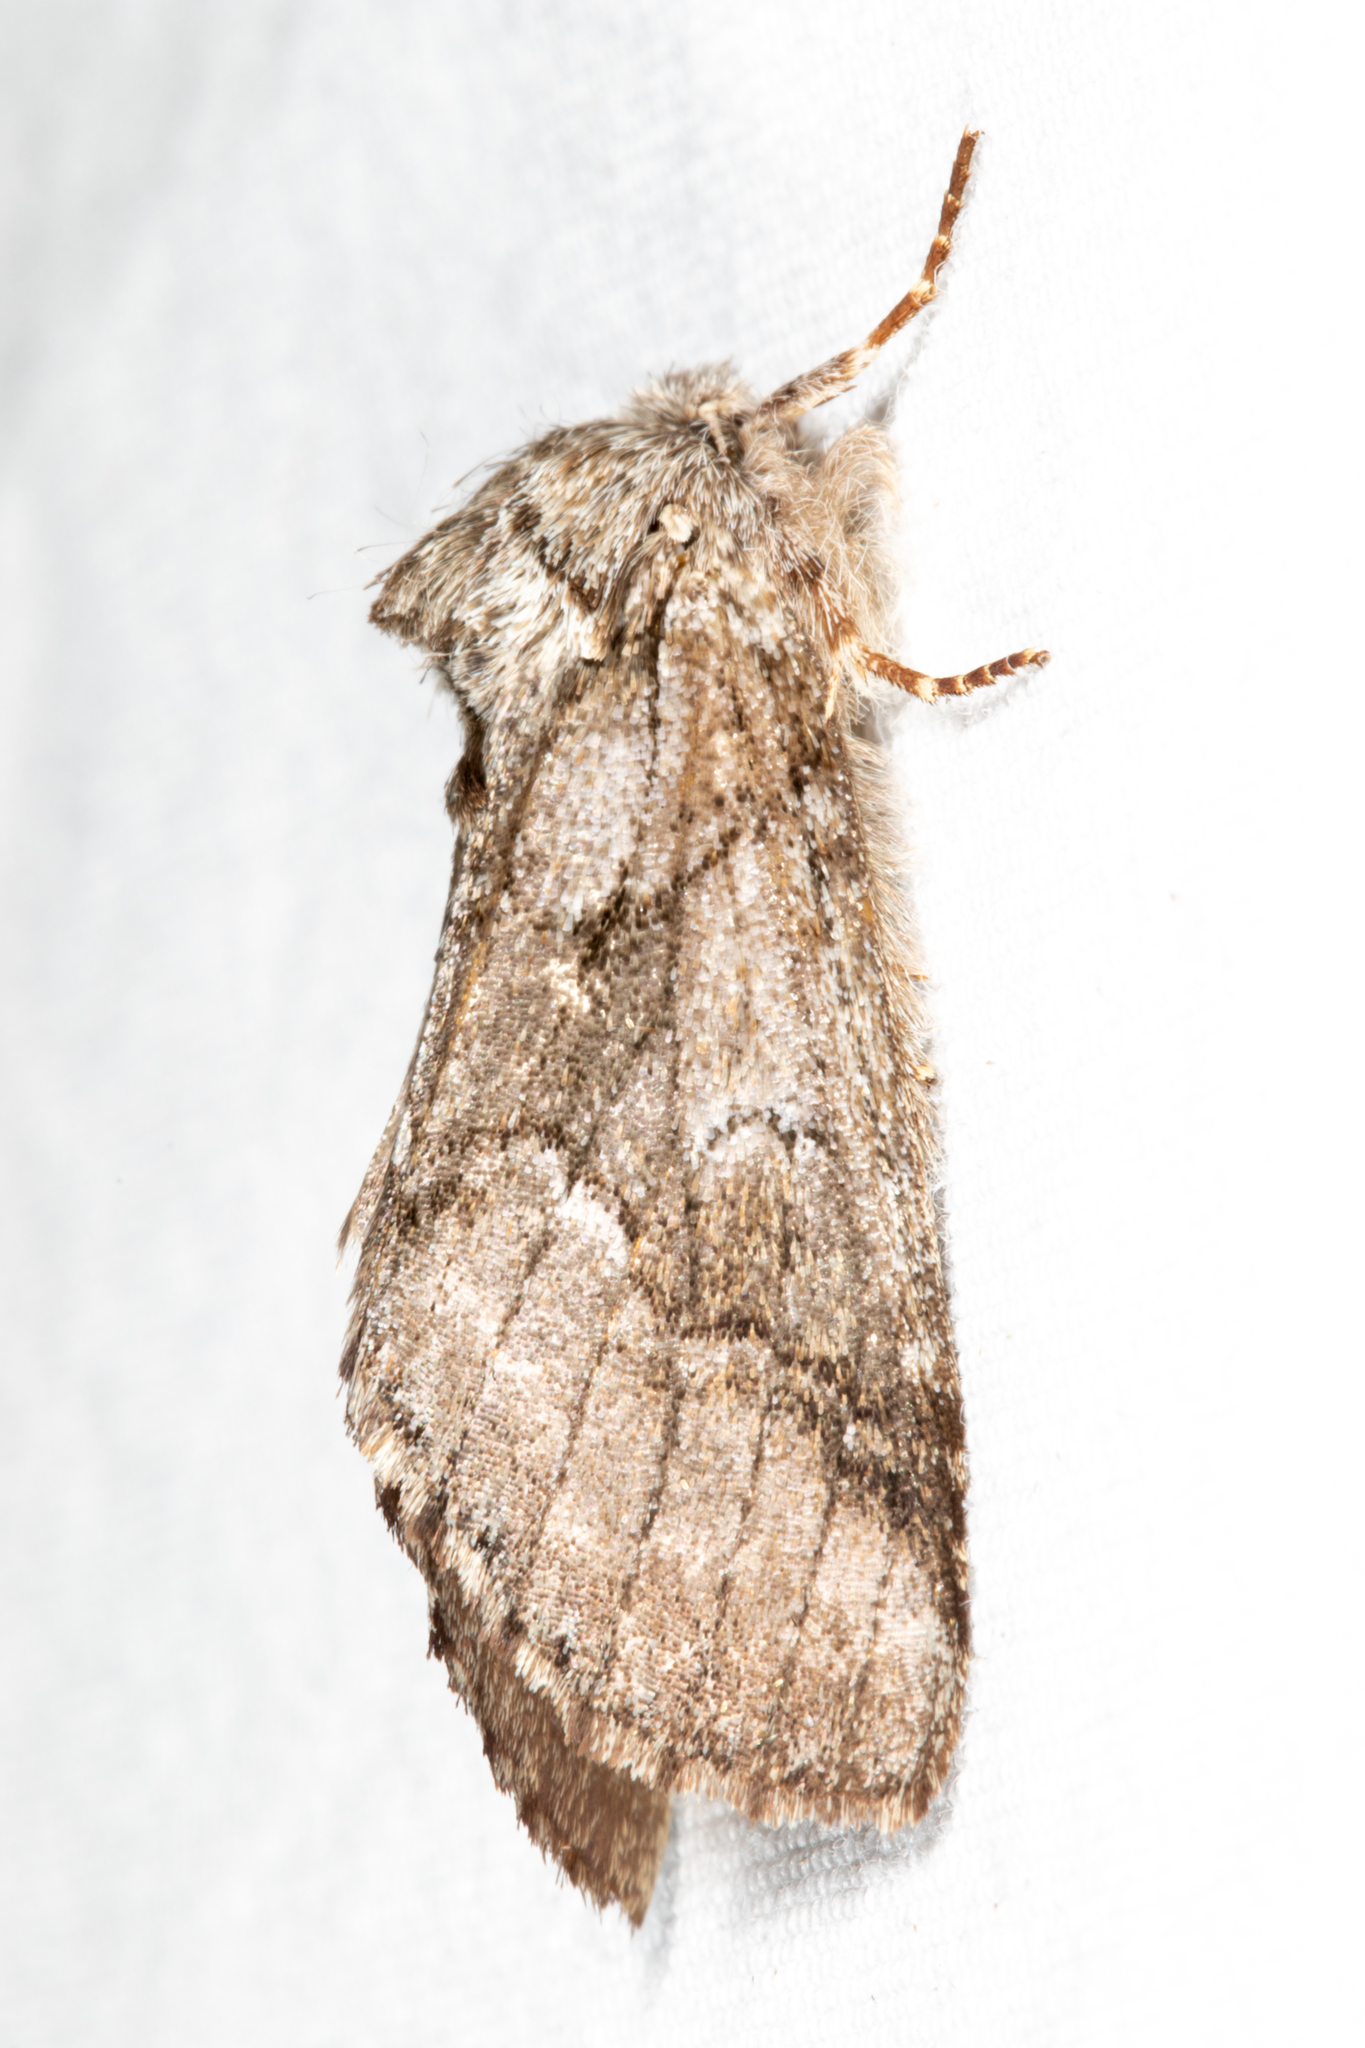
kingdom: Animalia
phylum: Arthropoda
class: Insecta
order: Lepidoptera
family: Notodontidae
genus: Lochmaeus
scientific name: Lochmaeus bilineata
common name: Double-lined prominent
